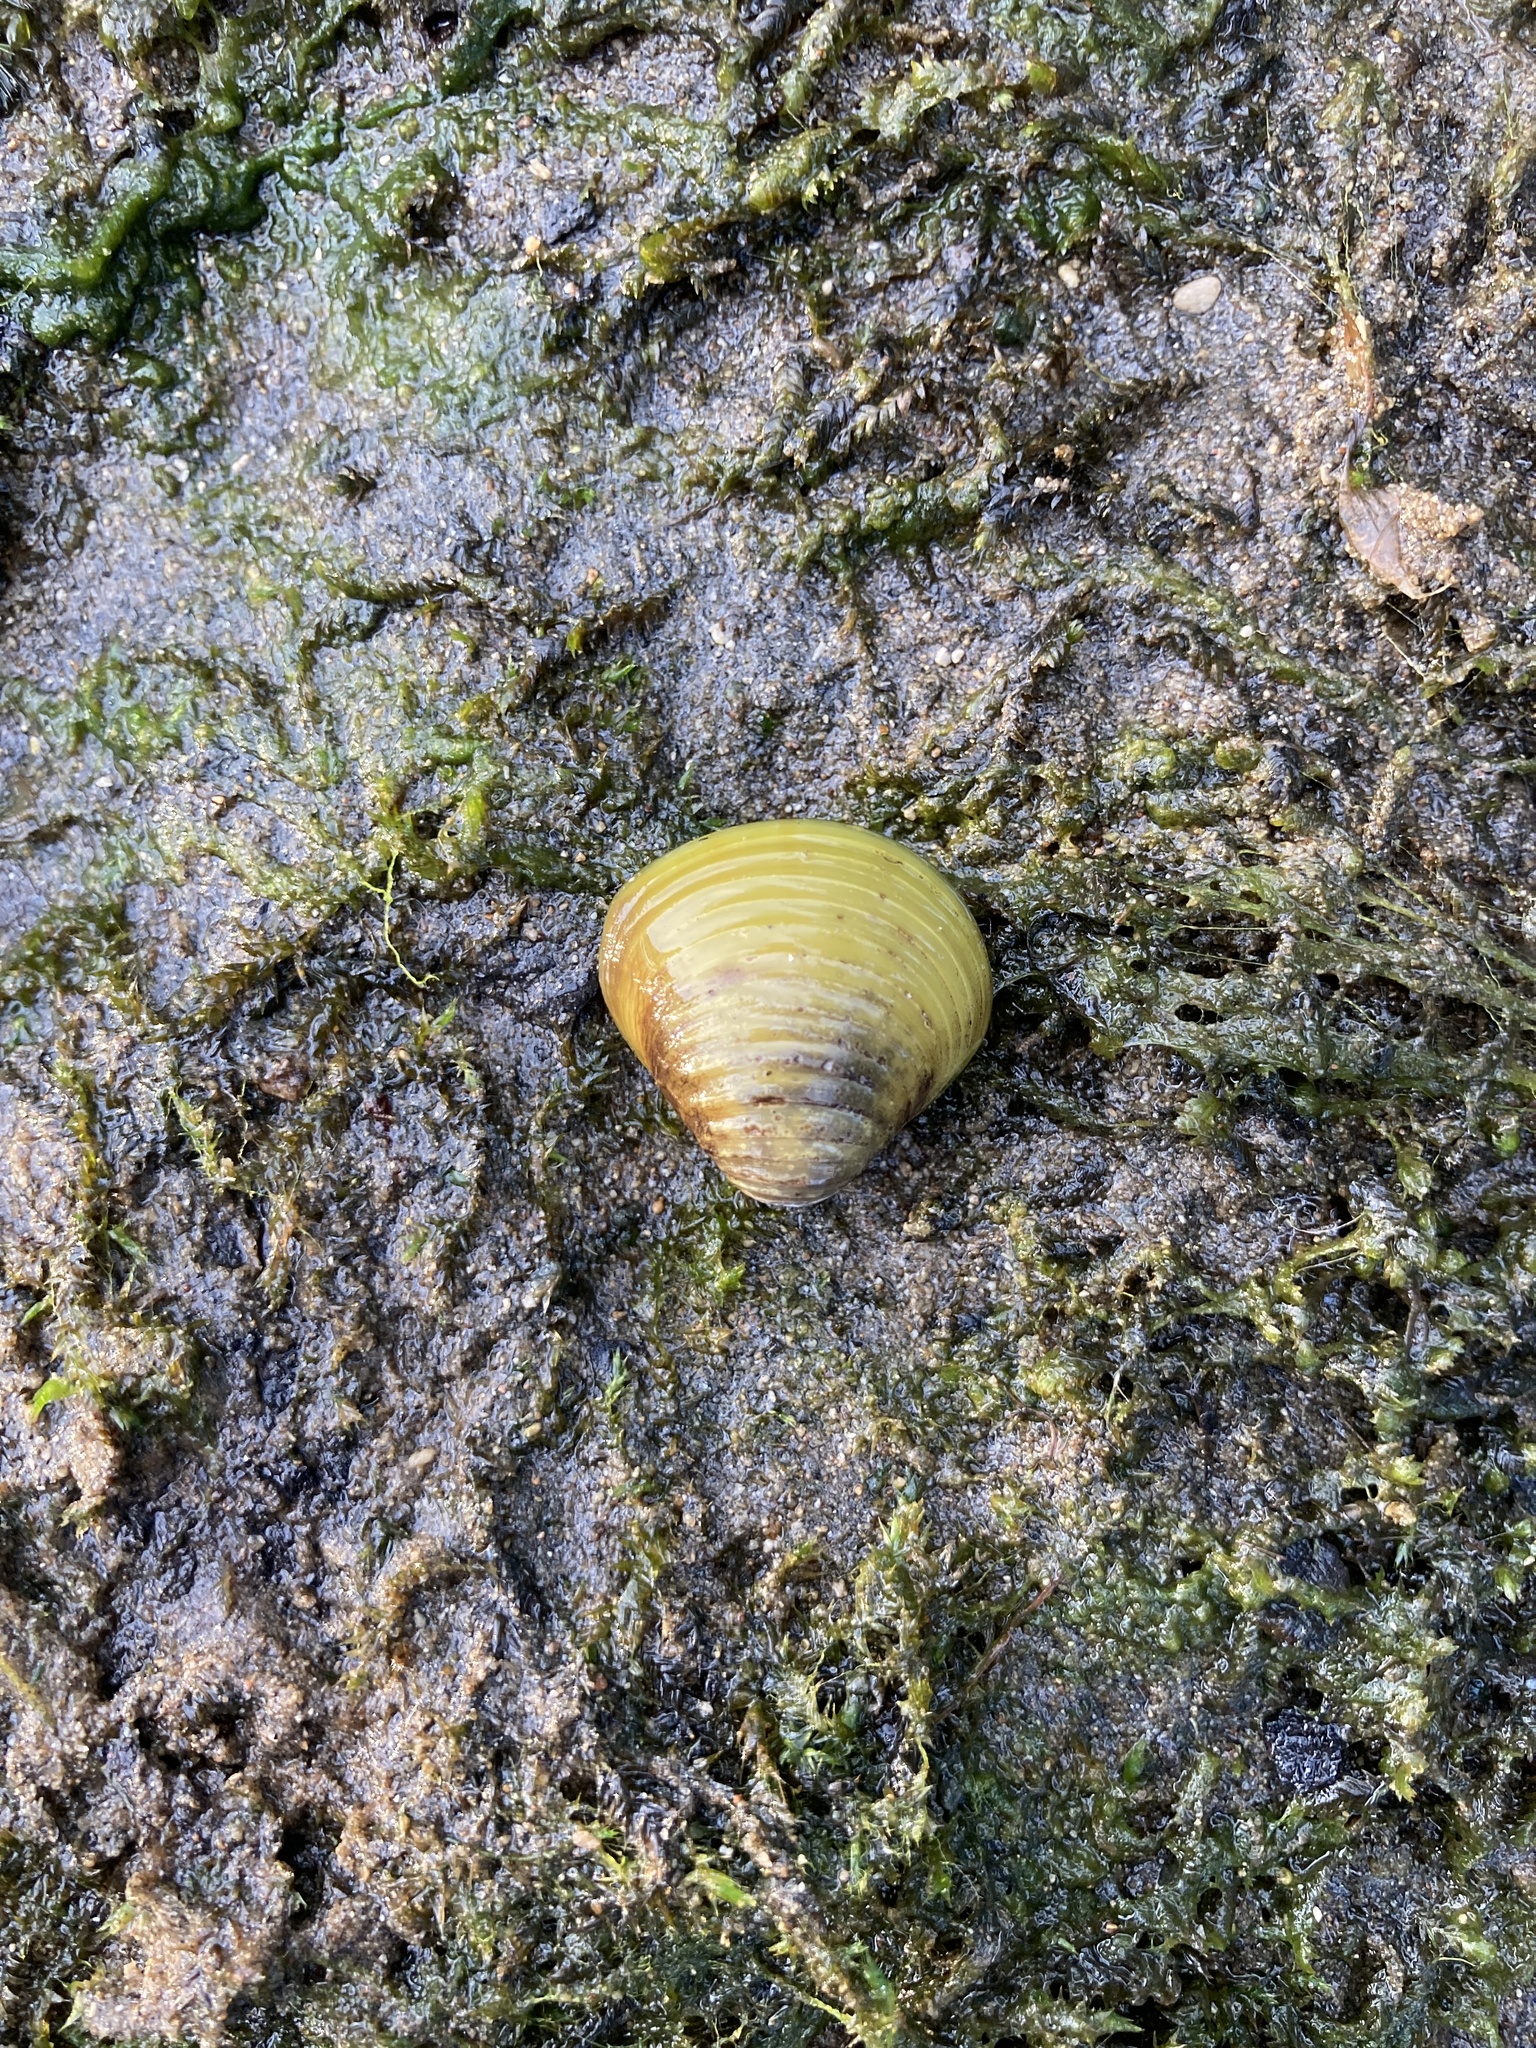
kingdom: Animalia
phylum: Mollusca
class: Bivalvia
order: Venerida
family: Cyrenidae
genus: Corbicula
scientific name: Corbicula fluminea
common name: Asian clam
